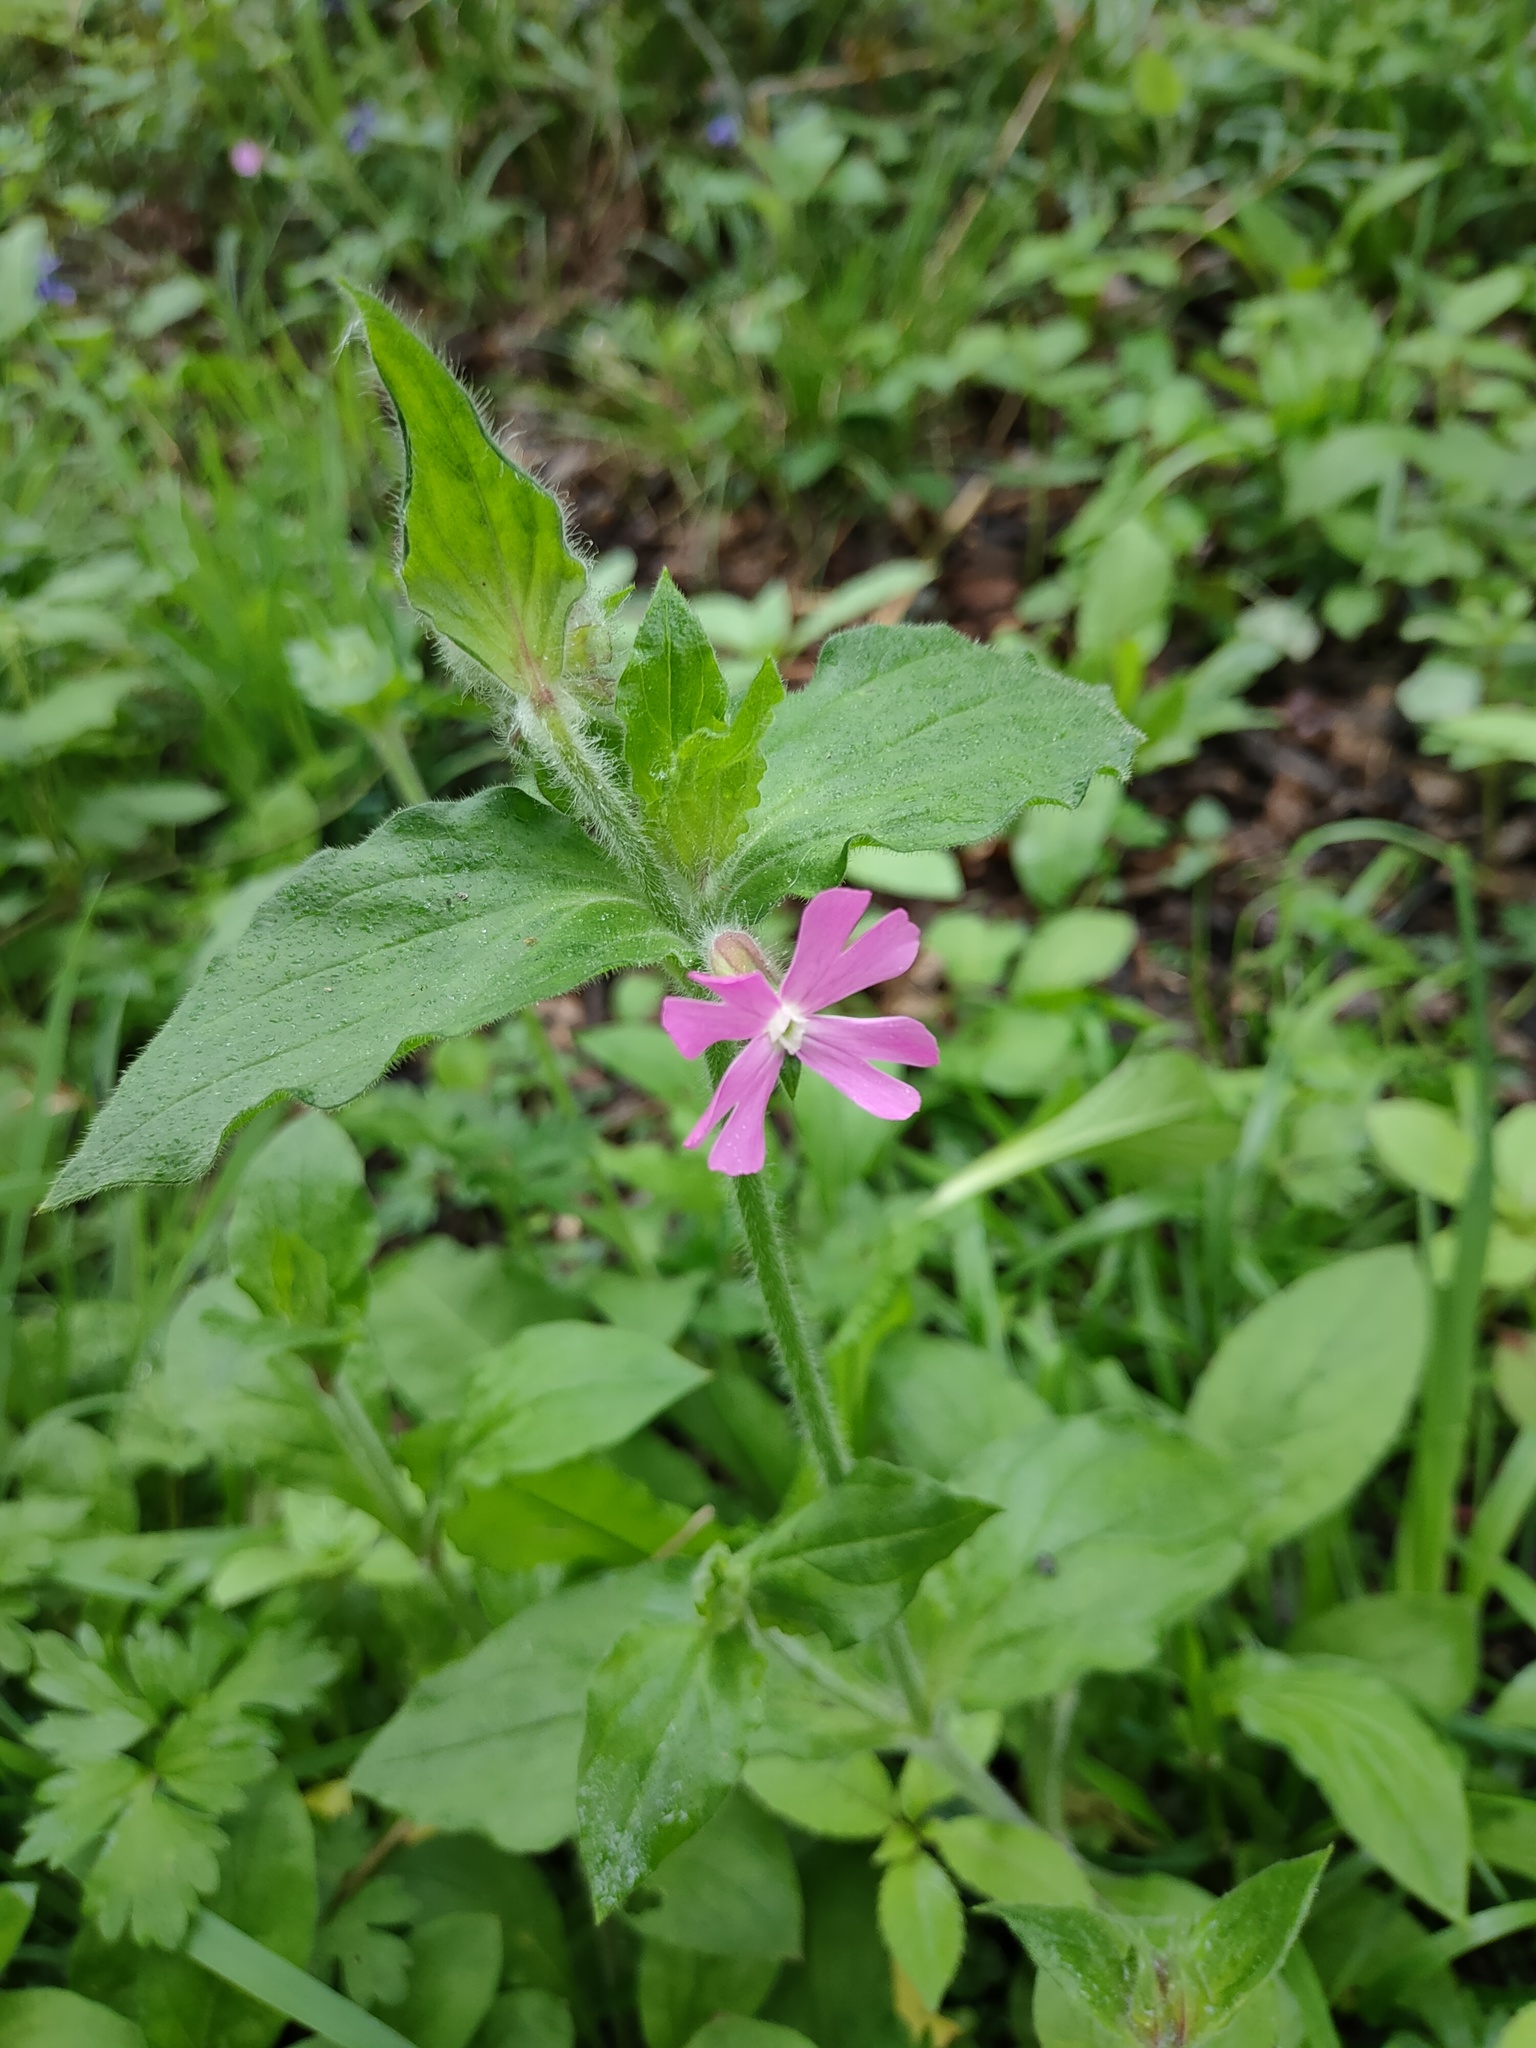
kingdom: Plantae
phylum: Tracheophyta
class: Magnoliopsida
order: Caryophyllales
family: Caryophyllaceae
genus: Silene
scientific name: Silene dioica
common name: Red campion
